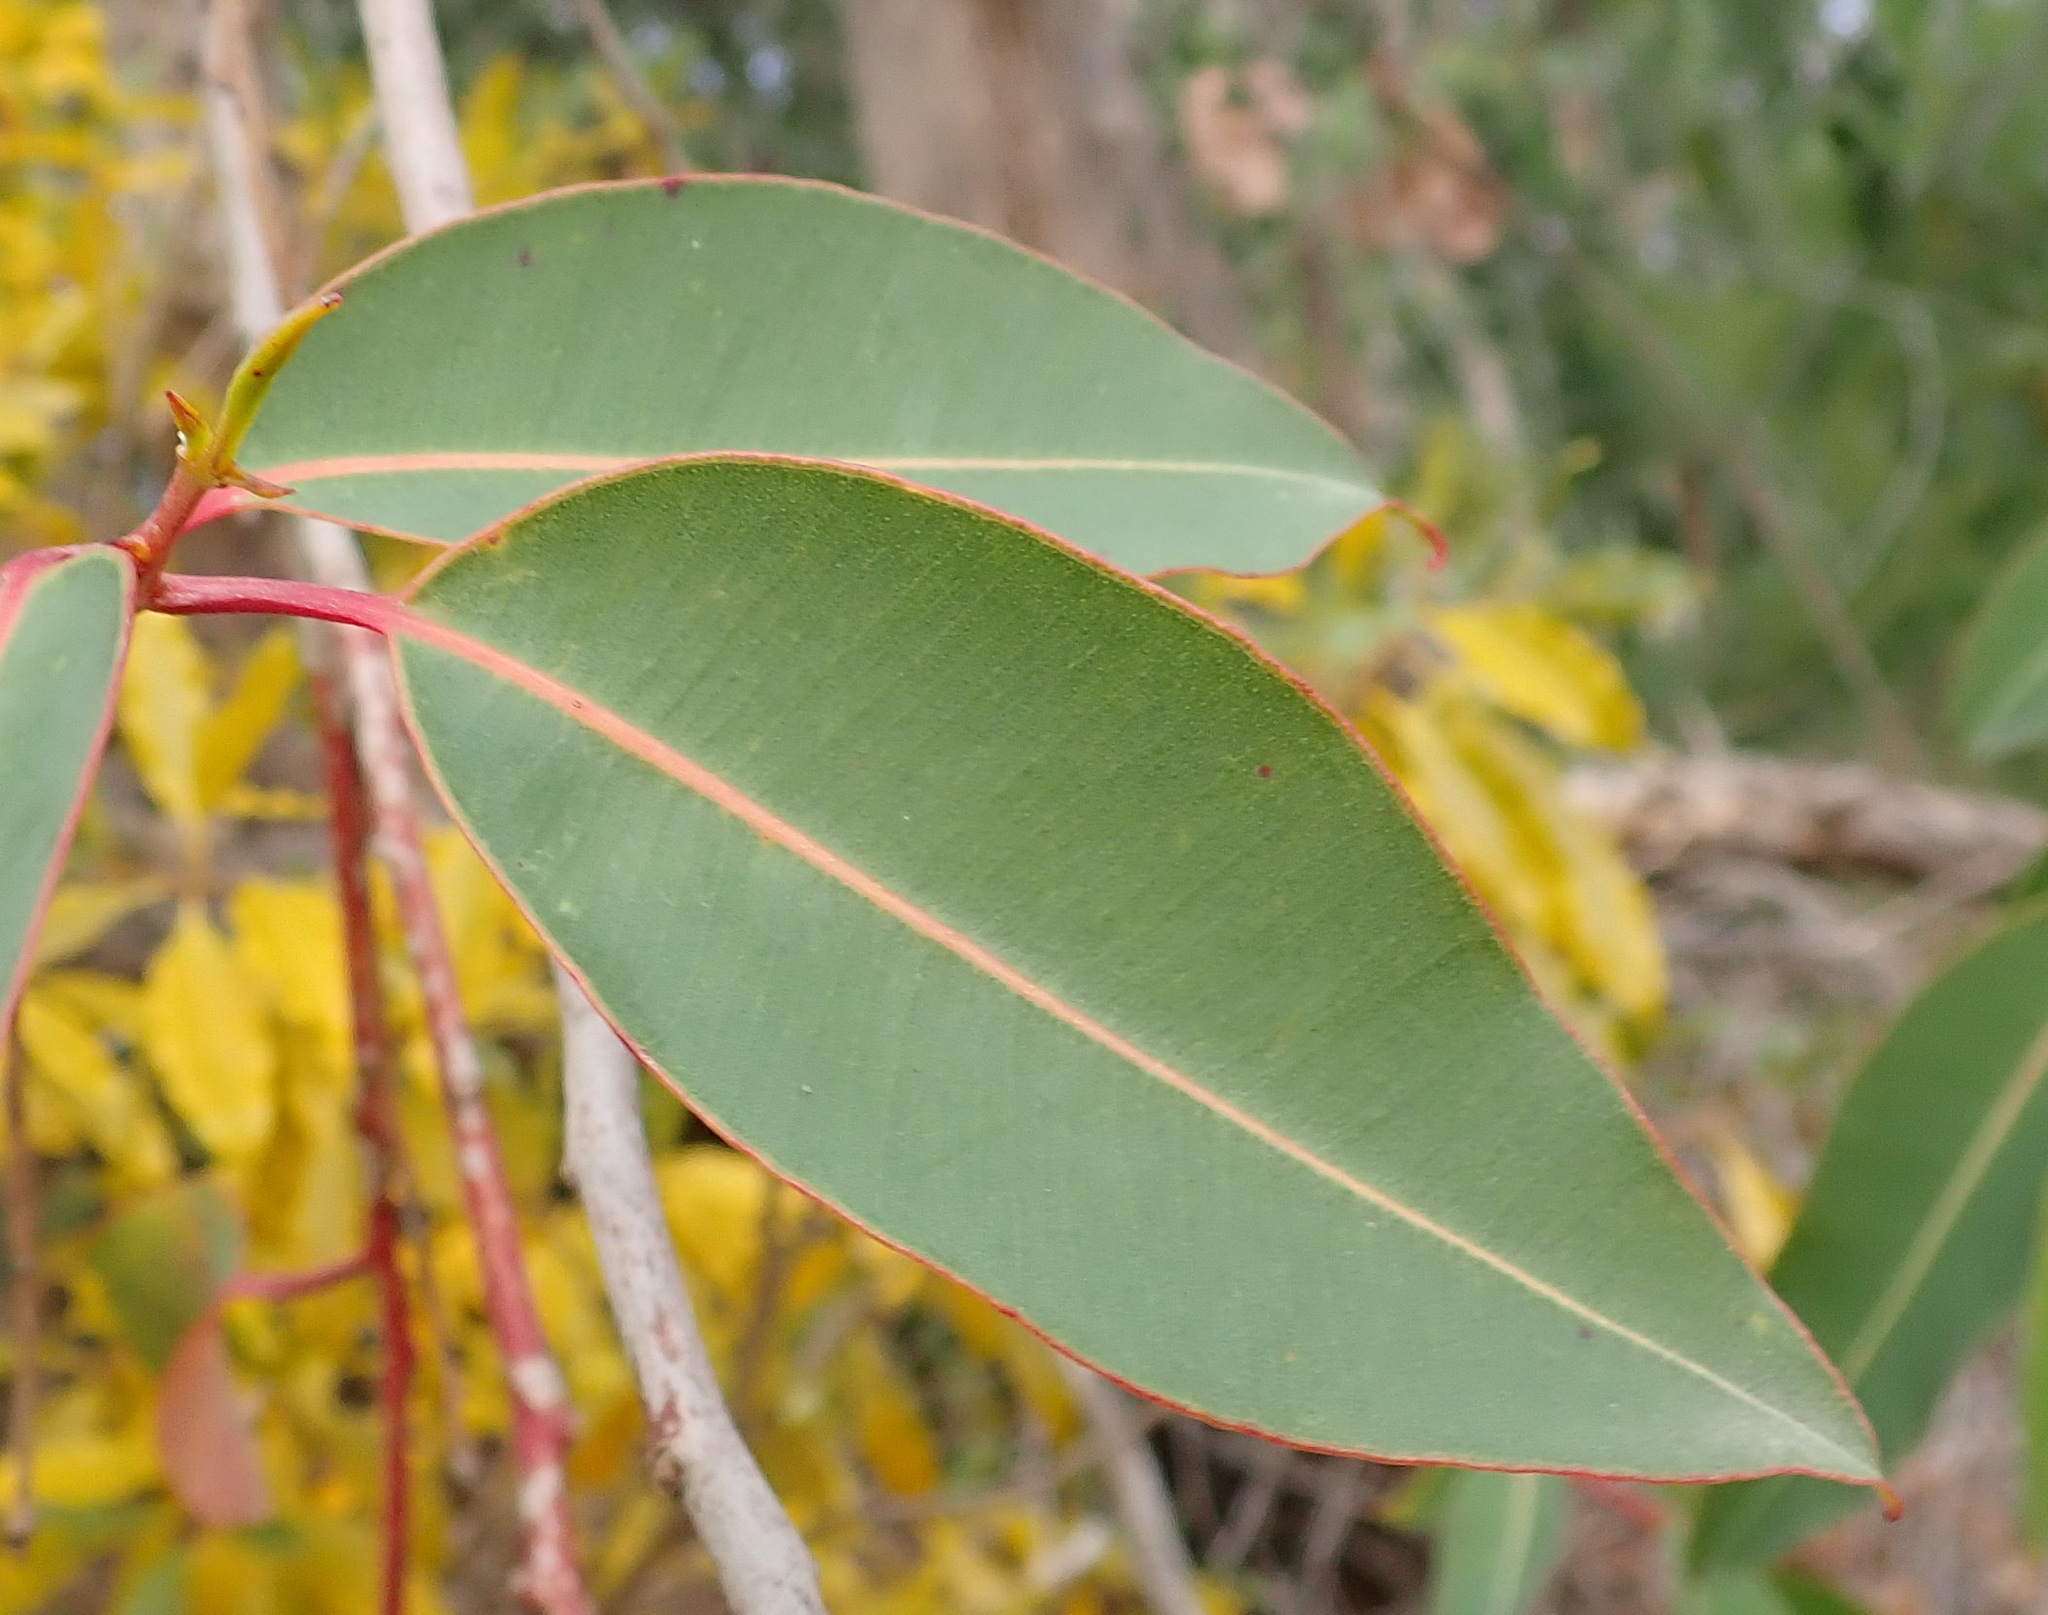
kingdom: Plantae
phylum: Tracheophyta
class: Magnoliopsida
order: Myrtales
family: Myrtaceae
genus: Corymbia
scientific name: Corymbia ficifolia
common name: Redflower gum
